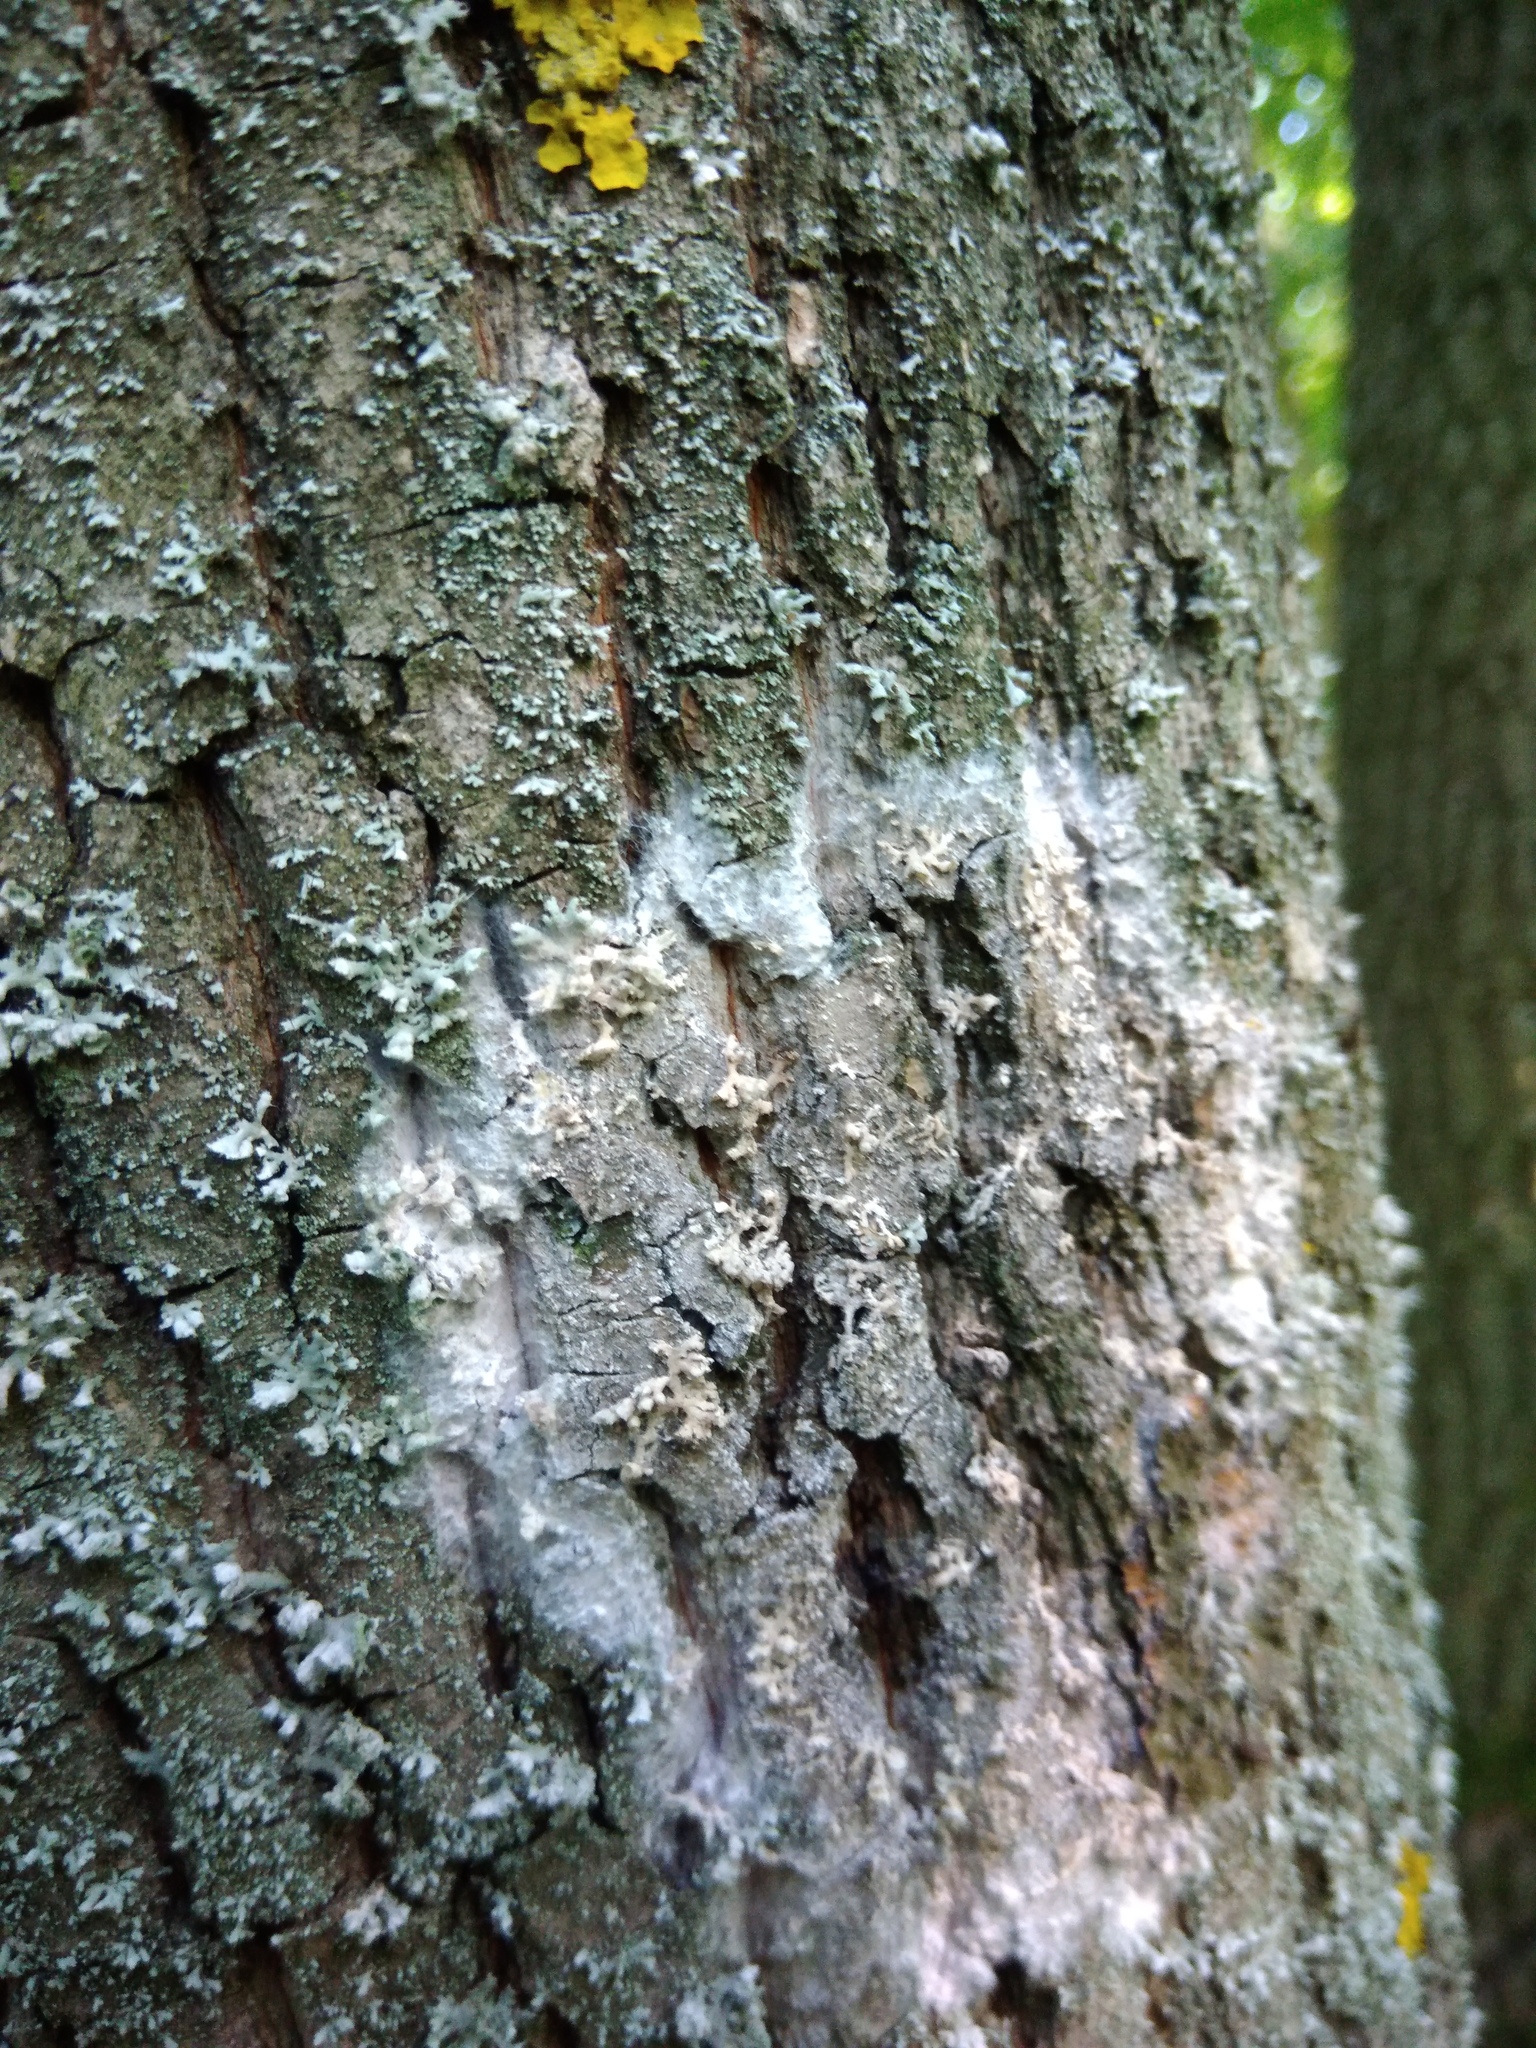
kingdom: Fungi
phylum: Basidiomycota
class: Agaricomycetes
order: Atheliales
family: Atheliaceae
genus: Athelia
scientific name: Athelia arachnoidea
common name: Candelabra duster
